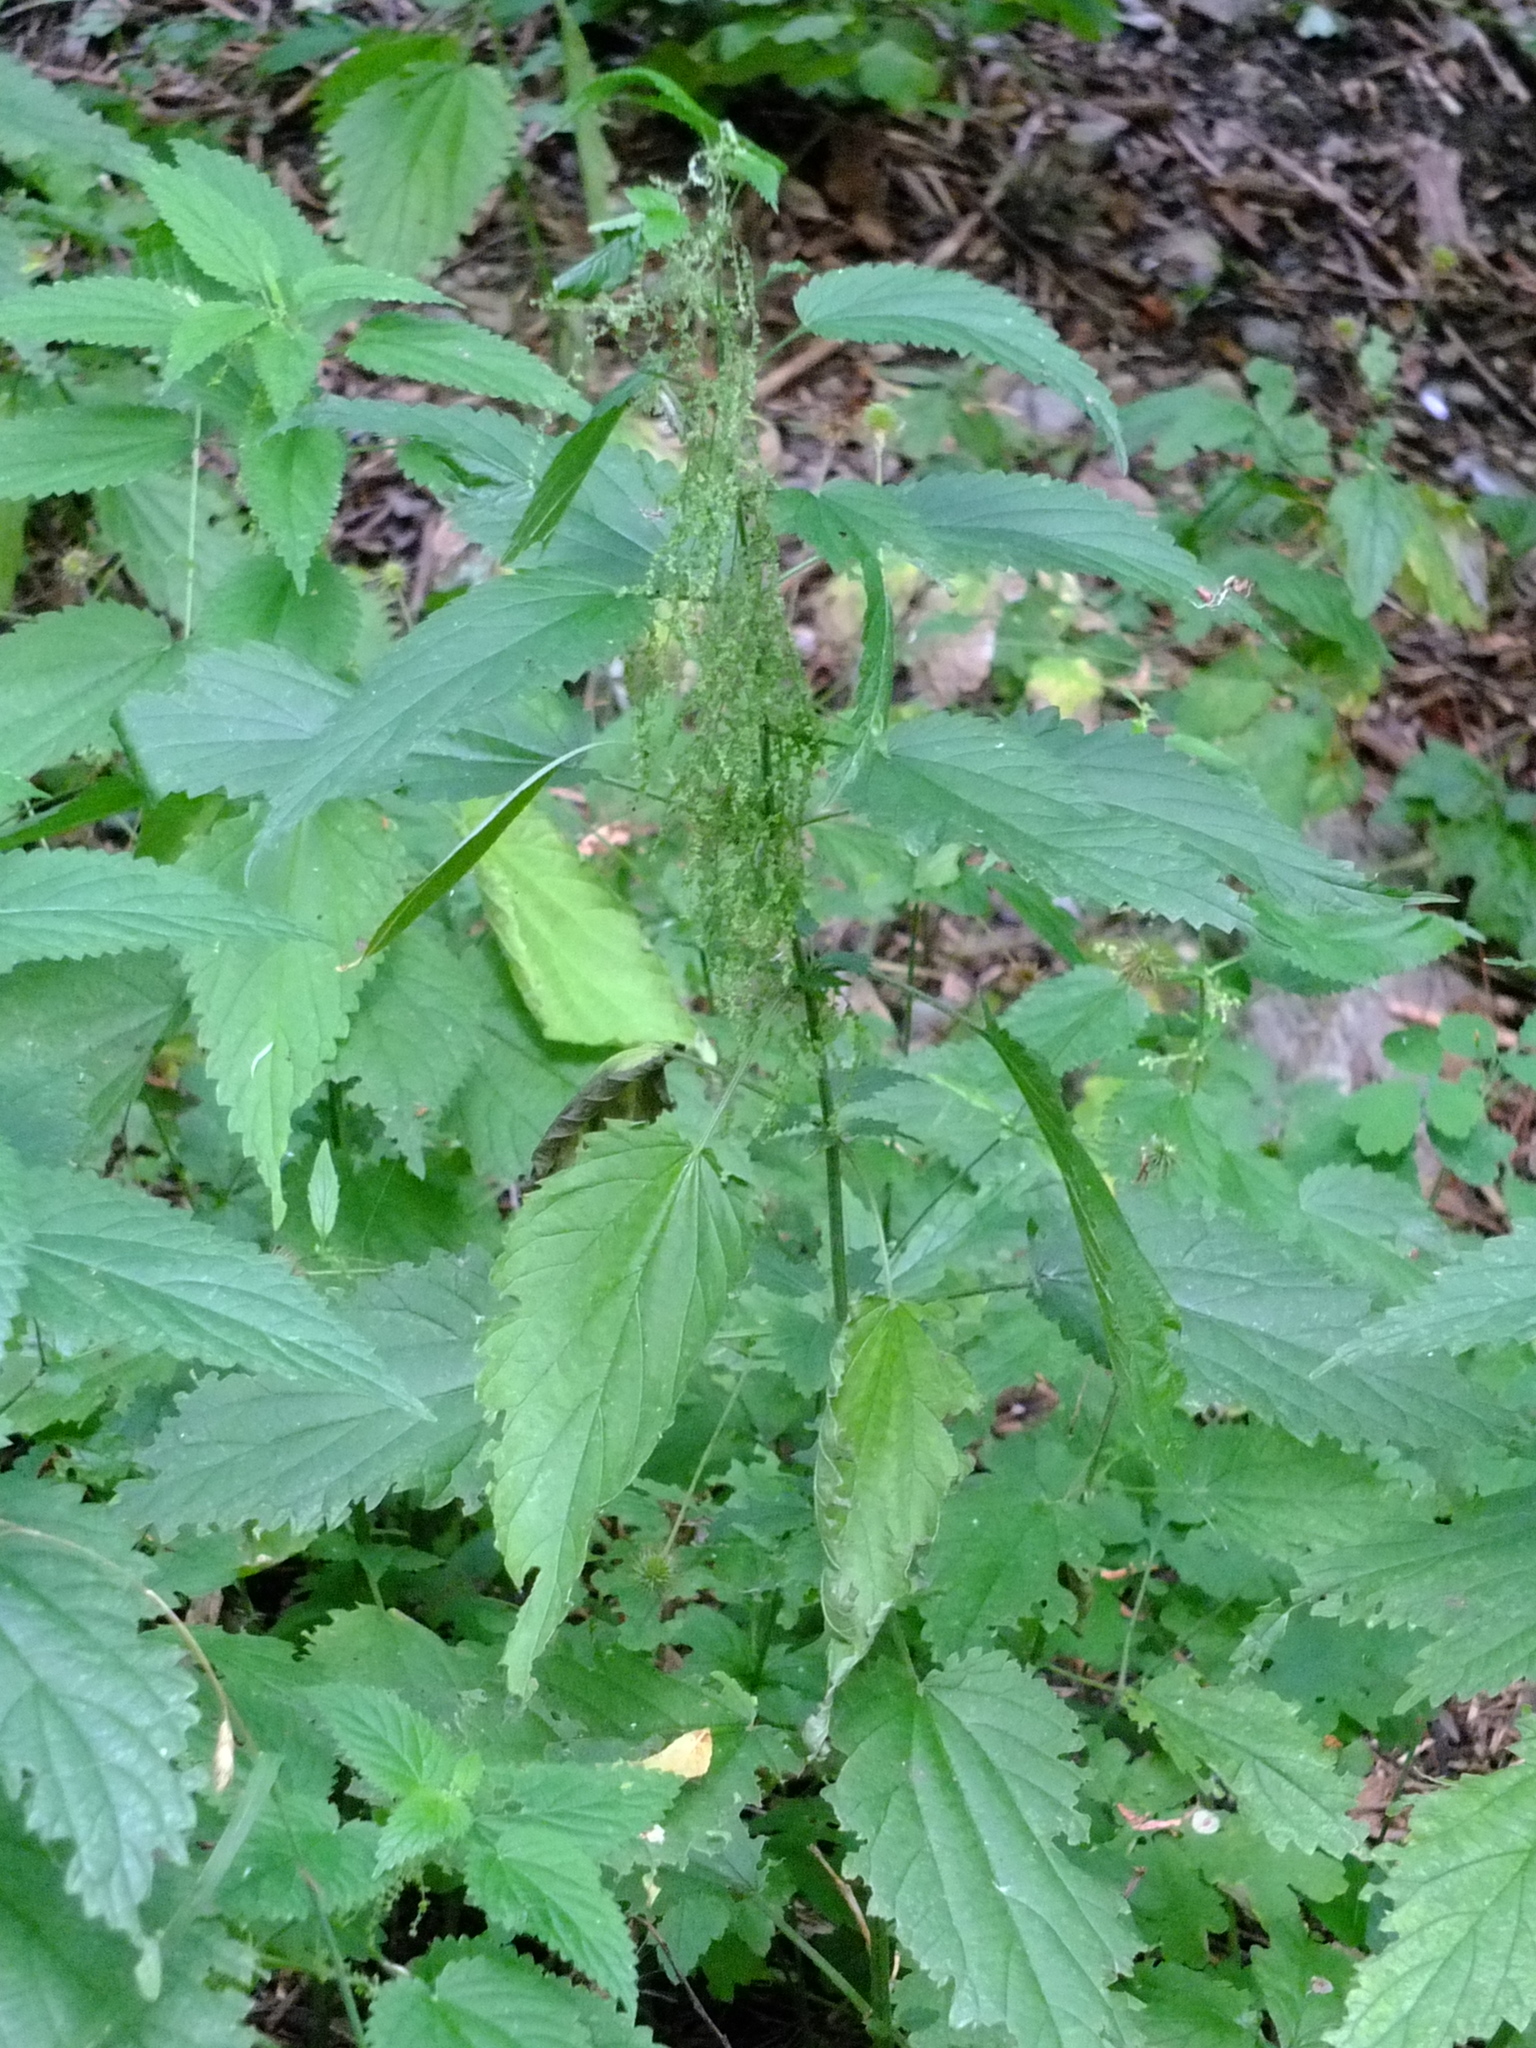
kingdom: Plantae
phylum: Tracheophyta
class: Magnoliopsida
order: Rosales
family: Urticaceae
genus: Urtica
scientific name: Urtica dioica
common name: Common nettle
